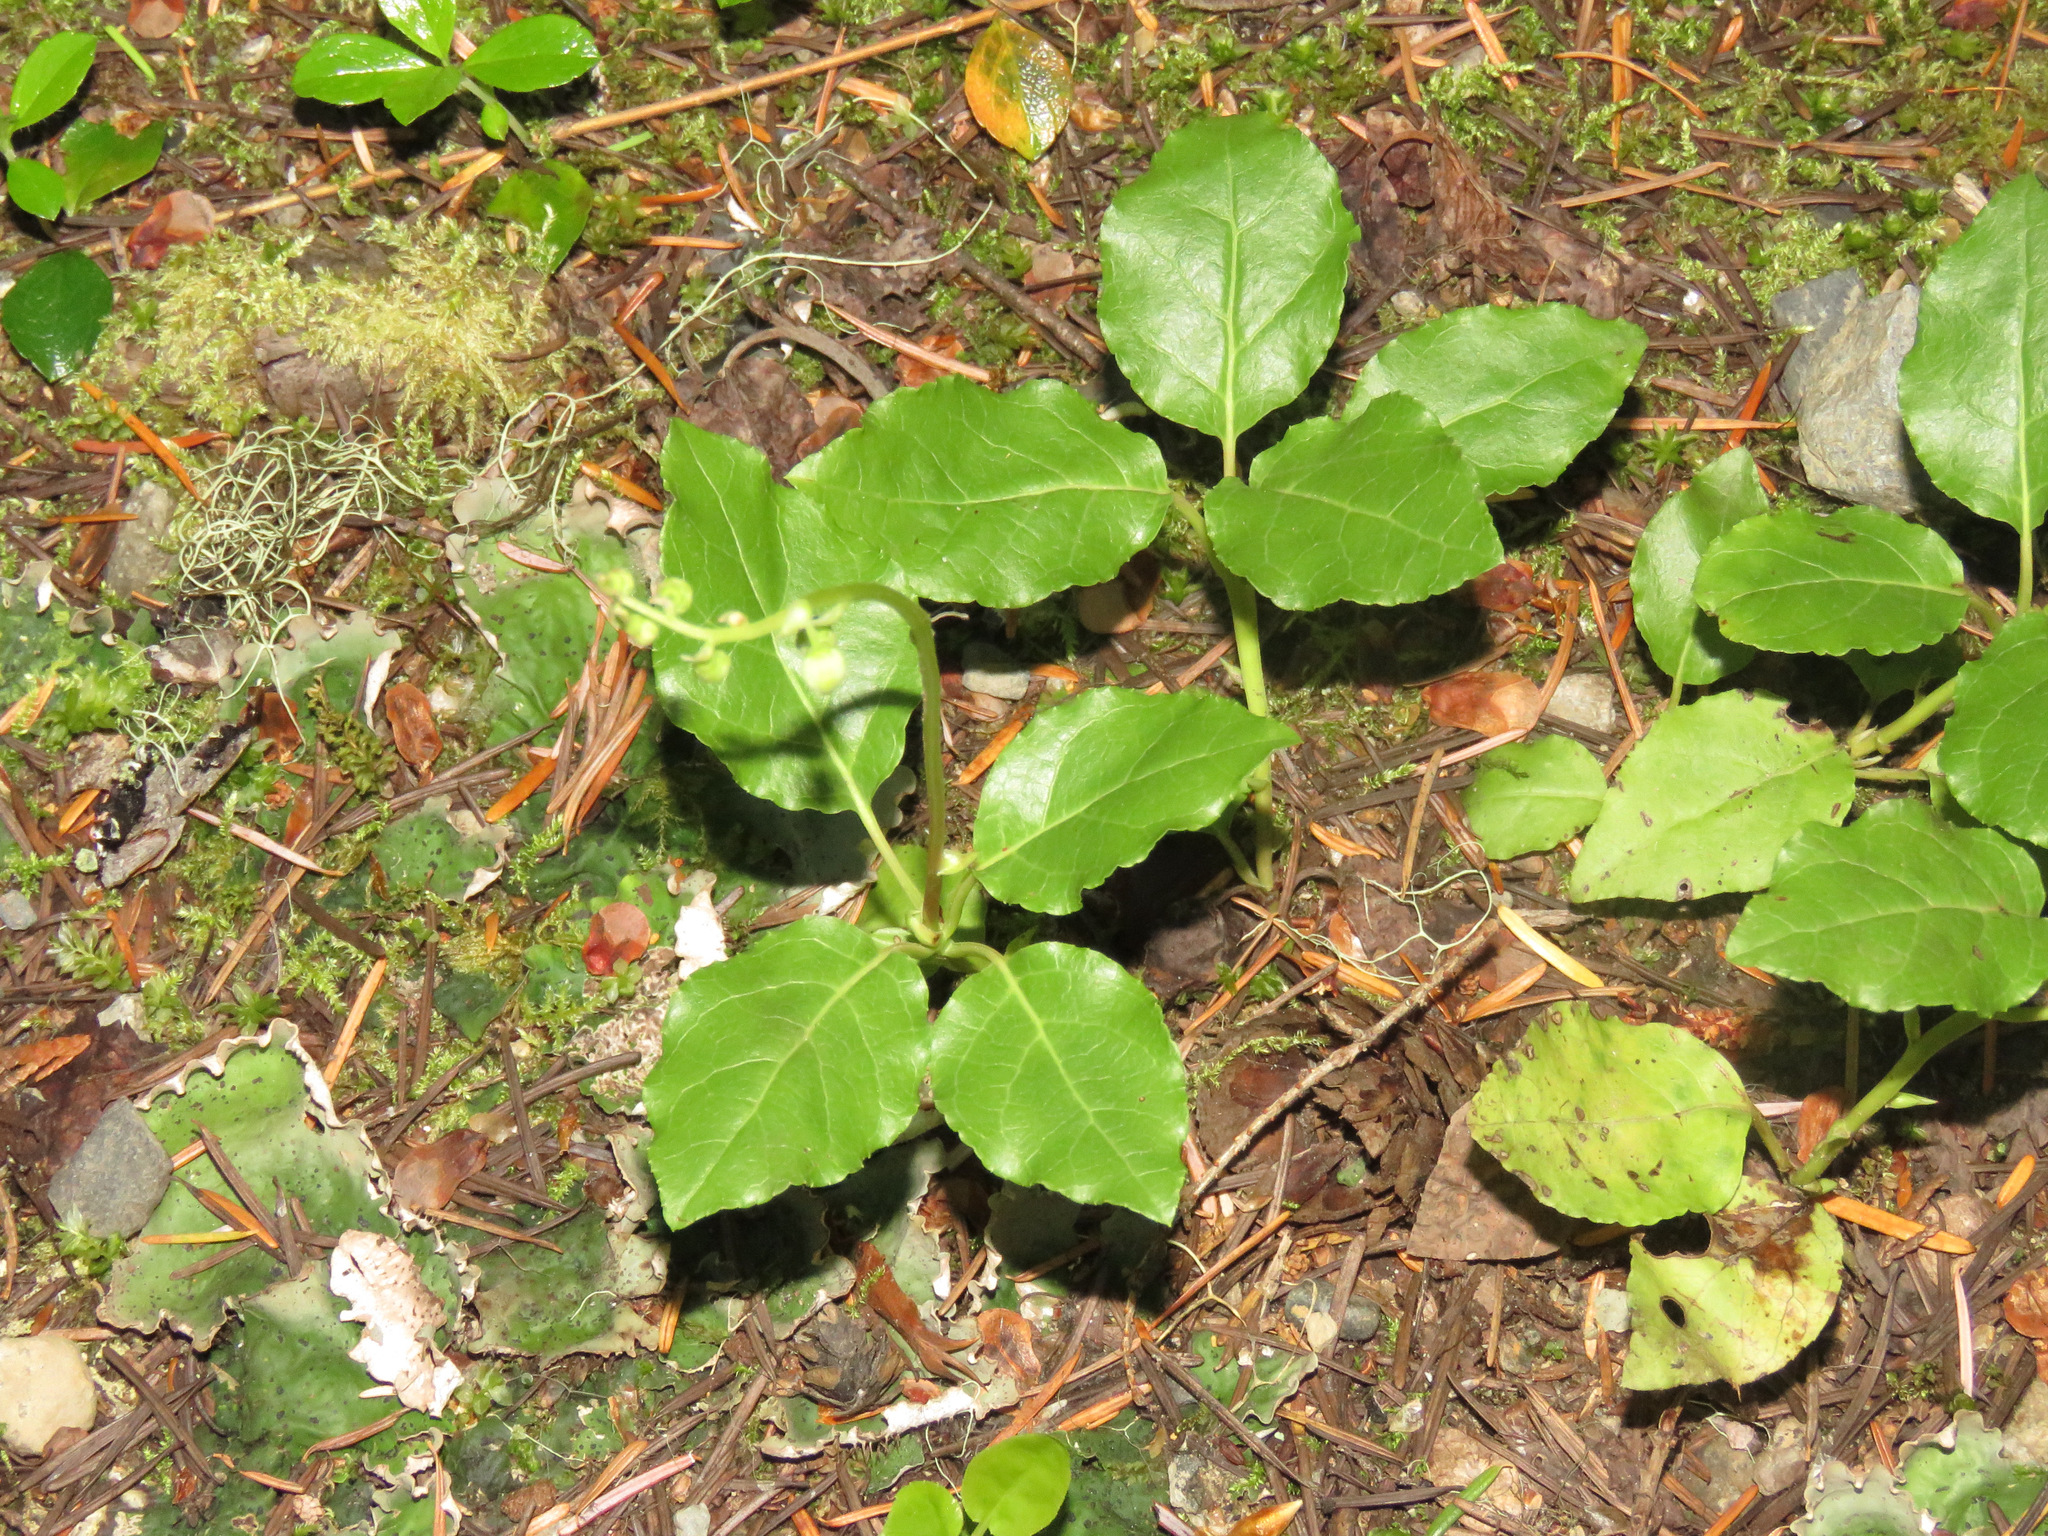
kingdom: Plantae
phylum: Tracheophyta
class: Magnoliopsida
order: Ericales
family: Ericaceae
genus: Orthilia
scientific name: Orthilia secunda
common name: One-sided orthilia
